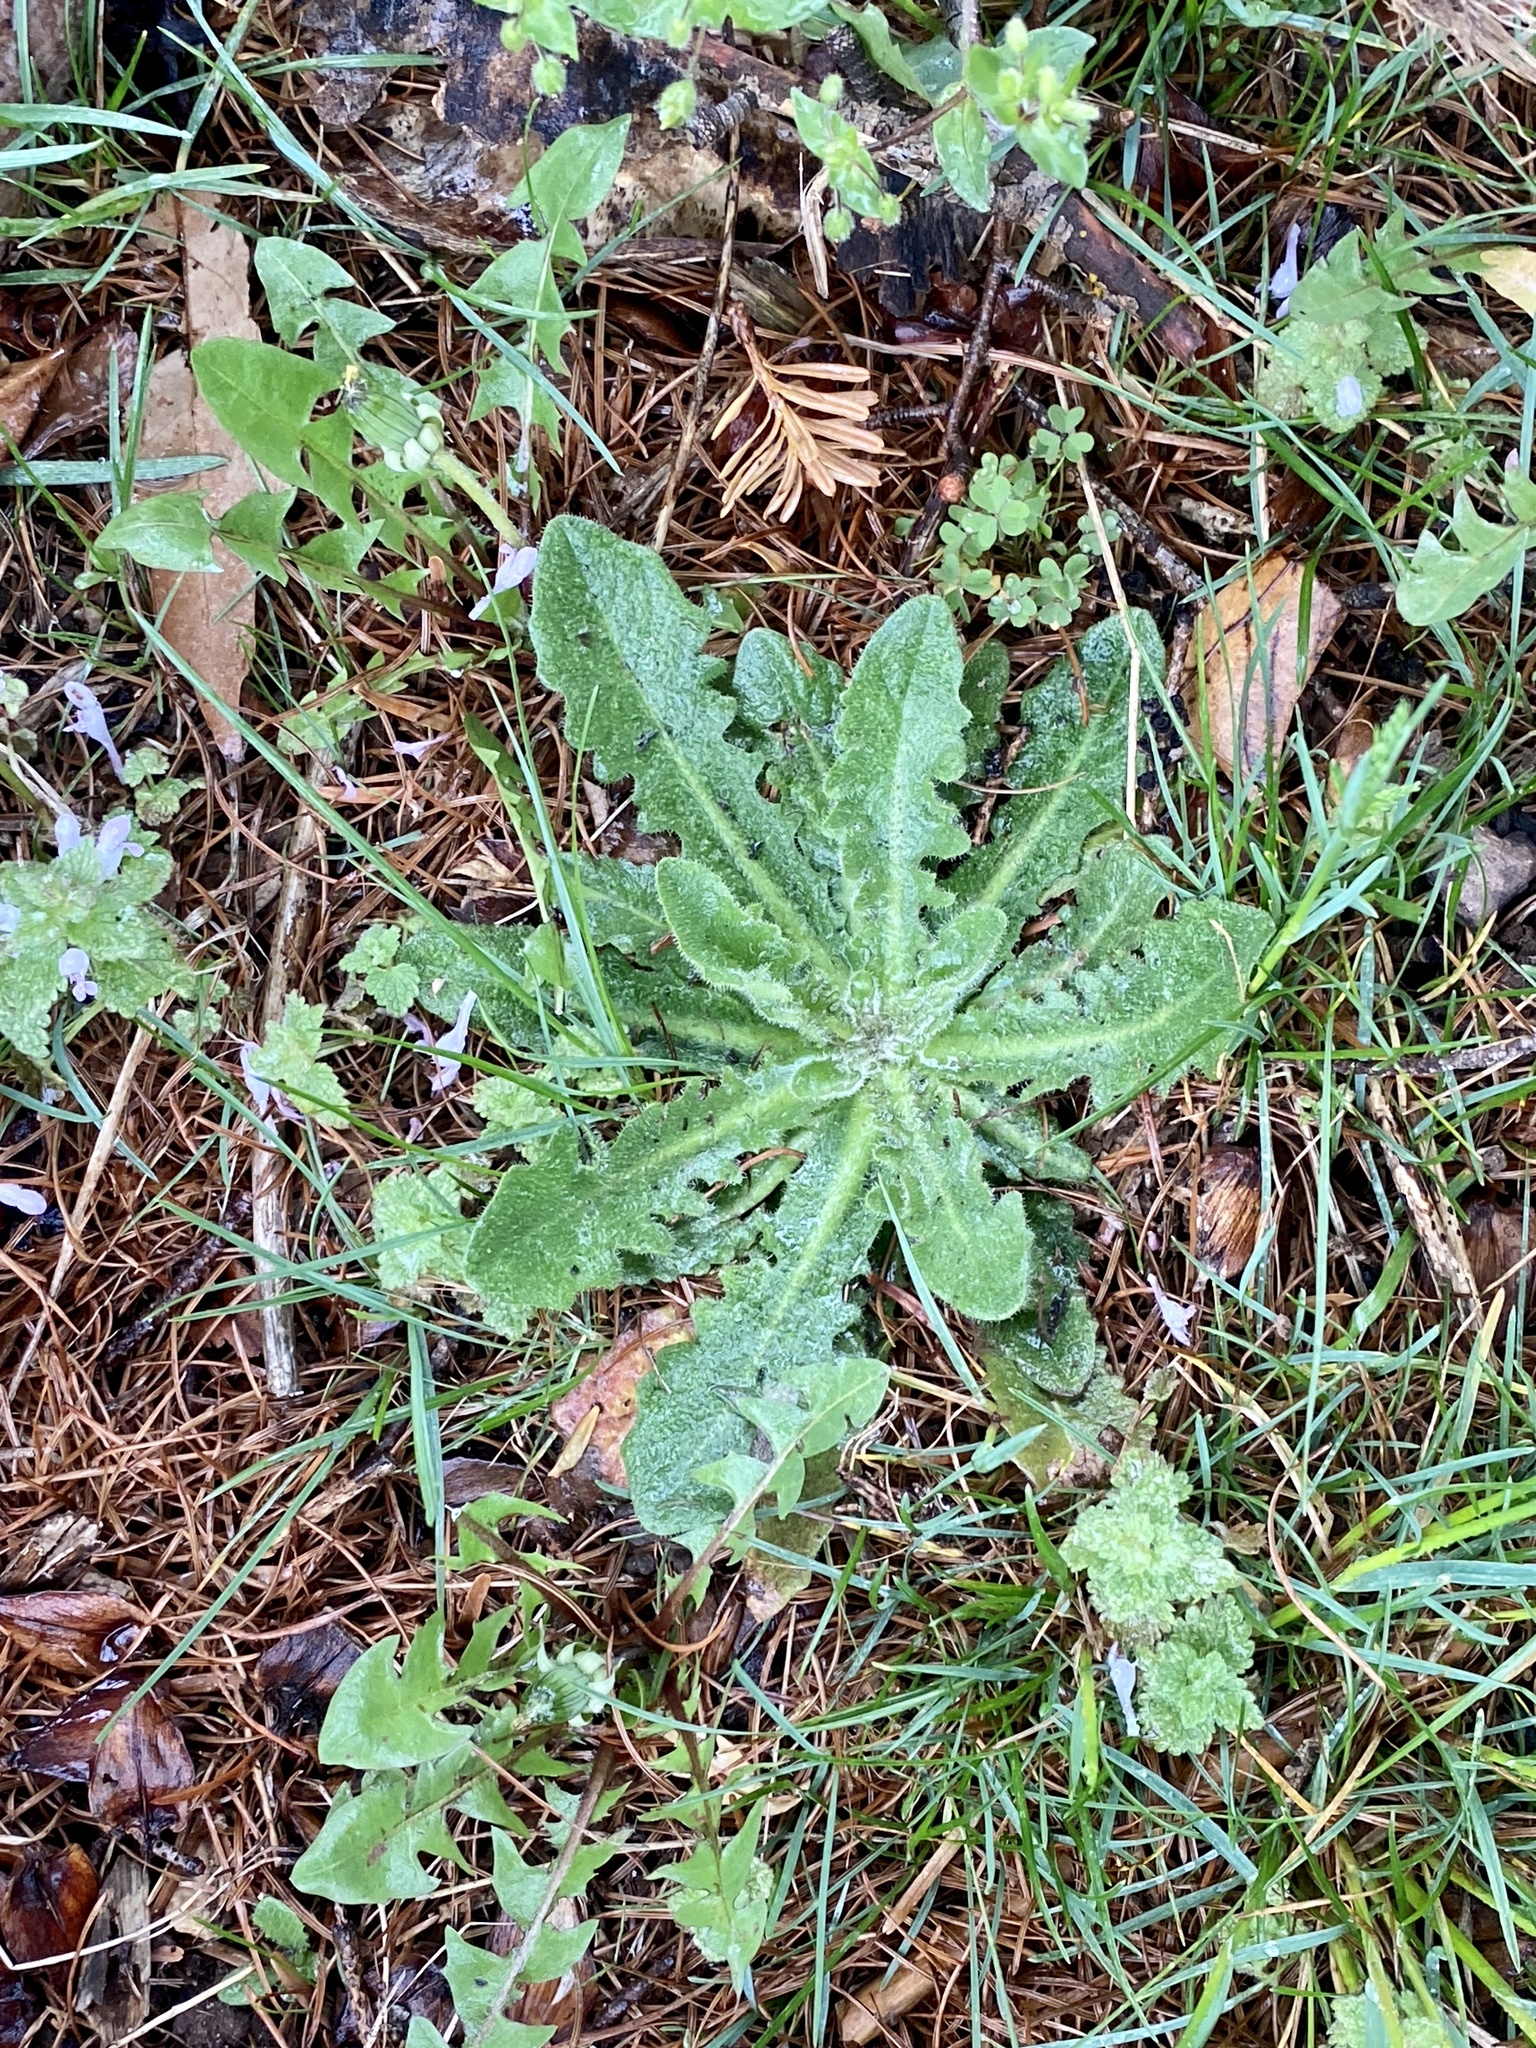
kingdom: Plantae
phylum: Tracheophyta
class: Magnoliopsida
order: Asterales
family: Asteraceae
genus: Hypochaeris
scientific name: Hypochaeris radicata
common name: Flatweed
